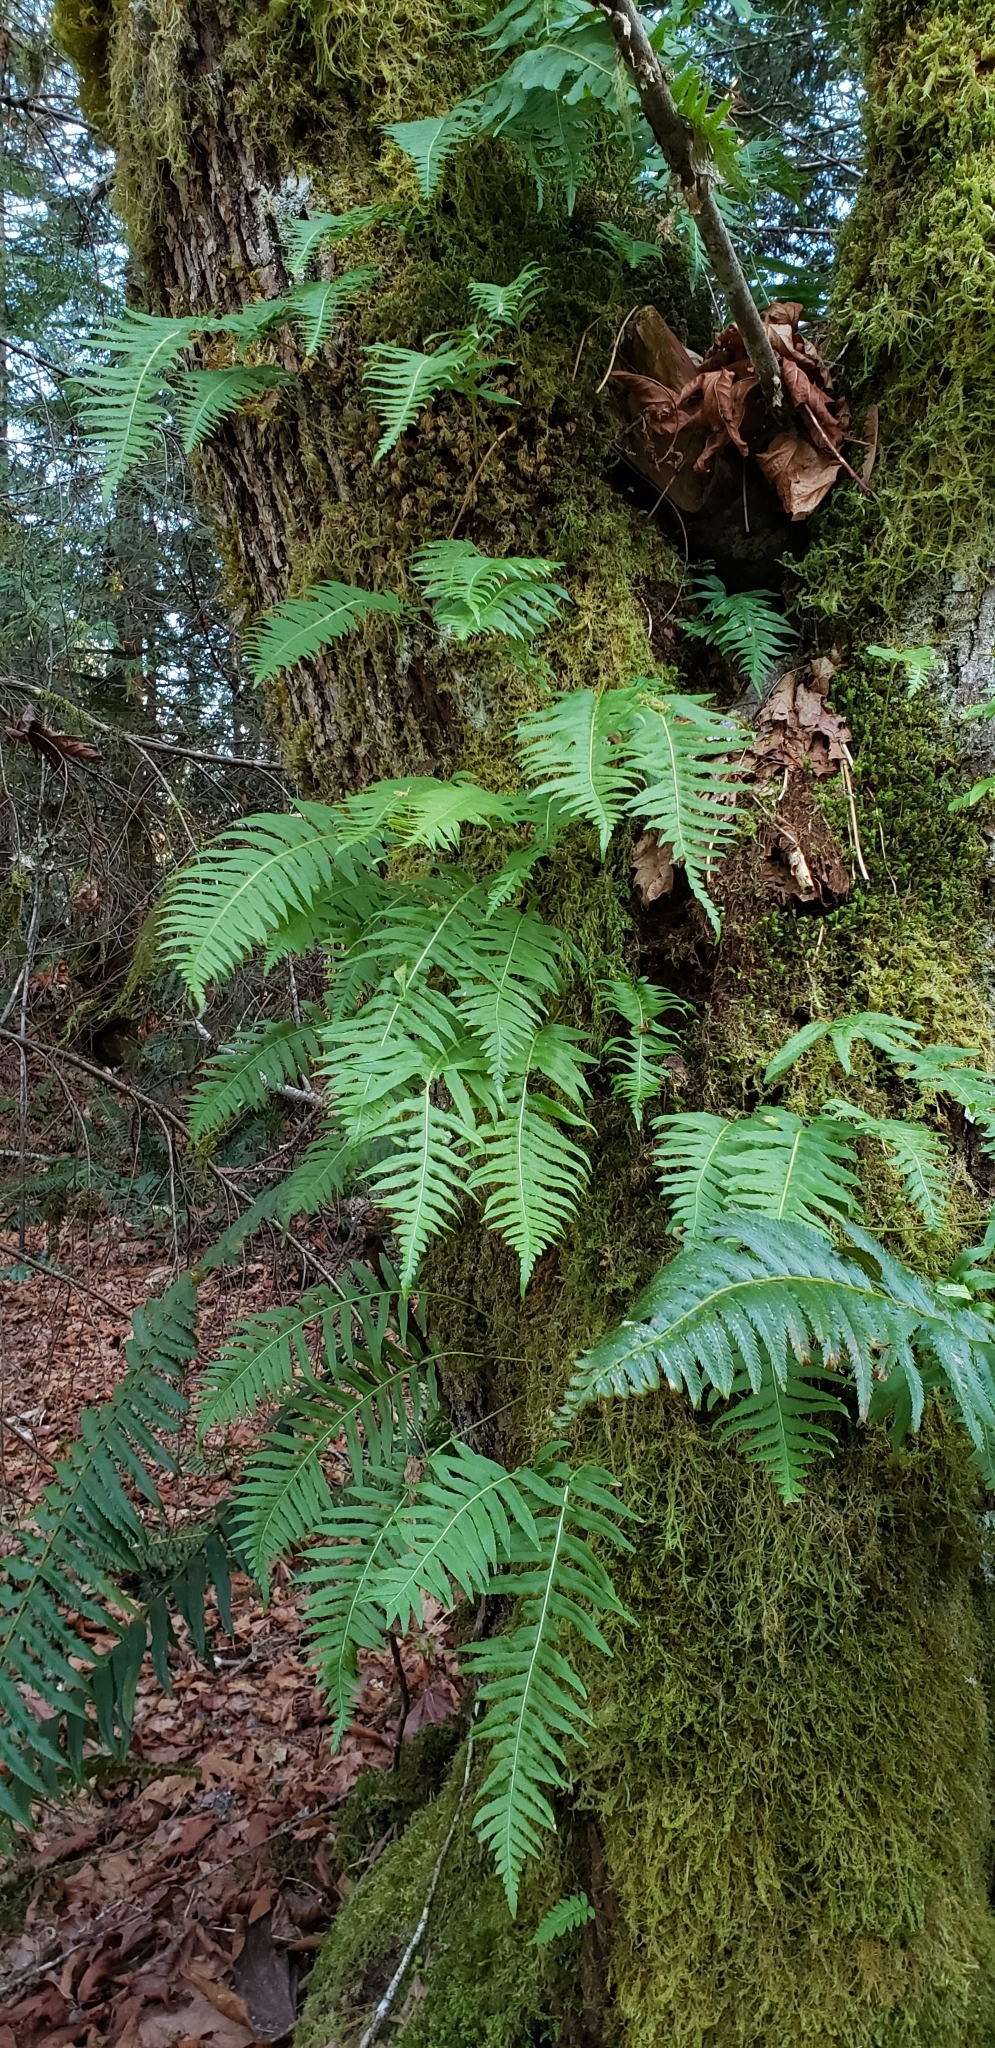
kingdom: Plantae
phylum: Tracheophyta
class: Polypodiopsida
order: Polypodiales
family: Polypodiaceae
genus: Polypodium
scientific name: Polypodium glycyrrhiza
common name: Licorice fern
